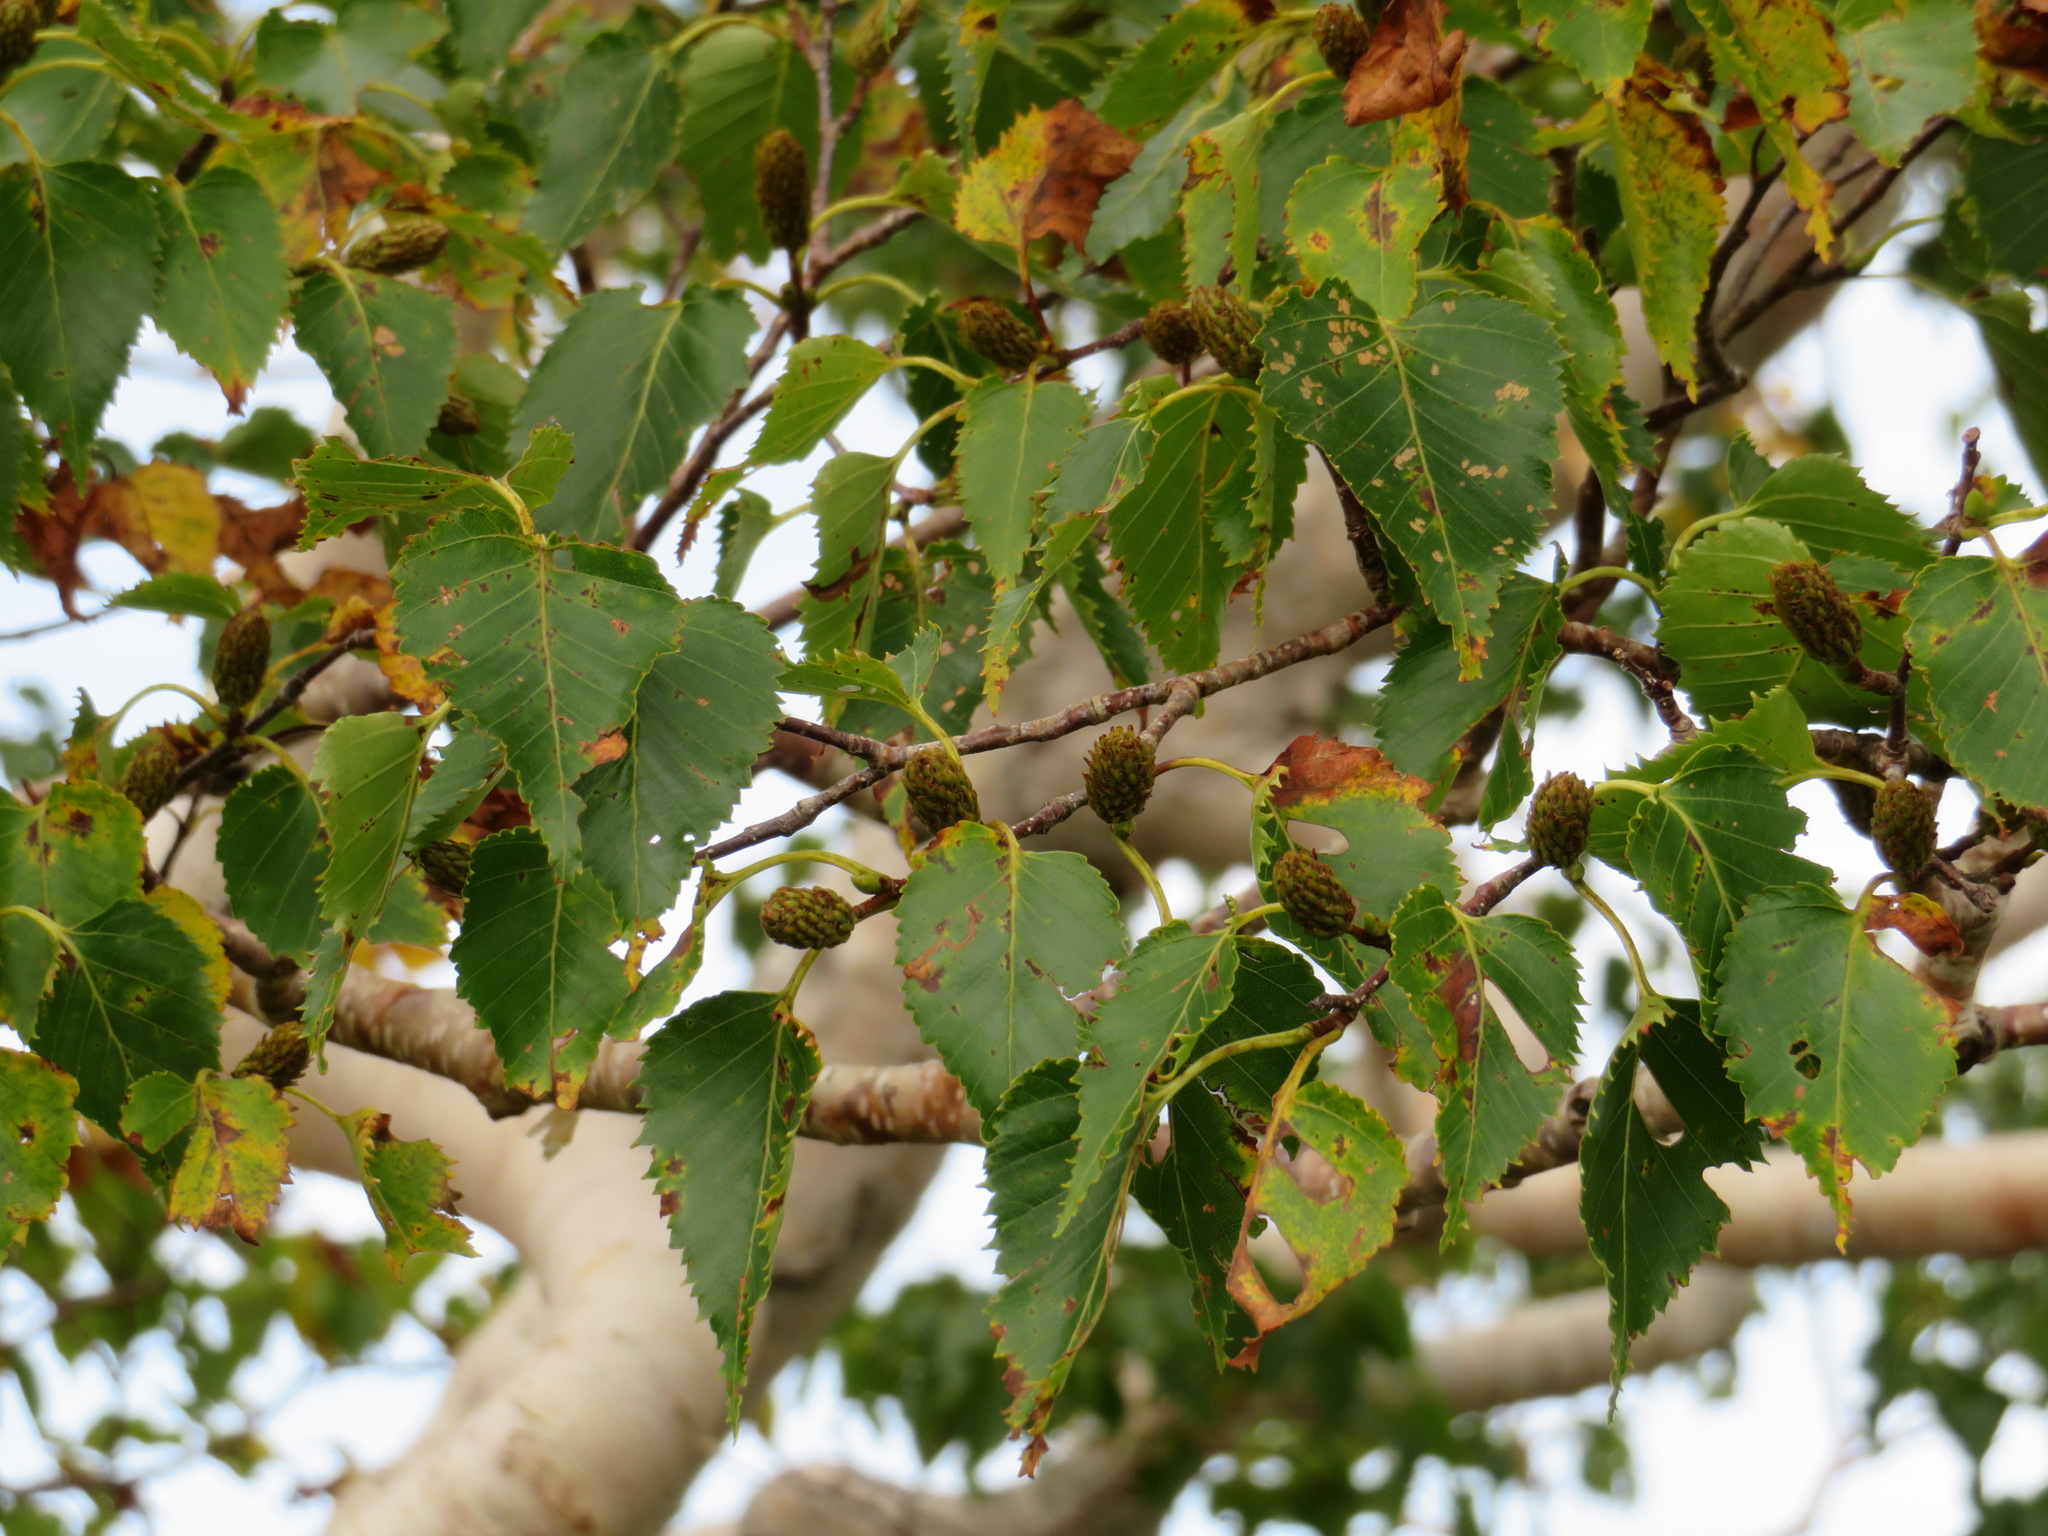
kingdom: Plantae
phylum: Tracheophyta
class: Magnoliopsida
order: Fagales
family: Betulaceae
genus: Betula
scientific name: Betula ermanii
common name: Erman's birch
